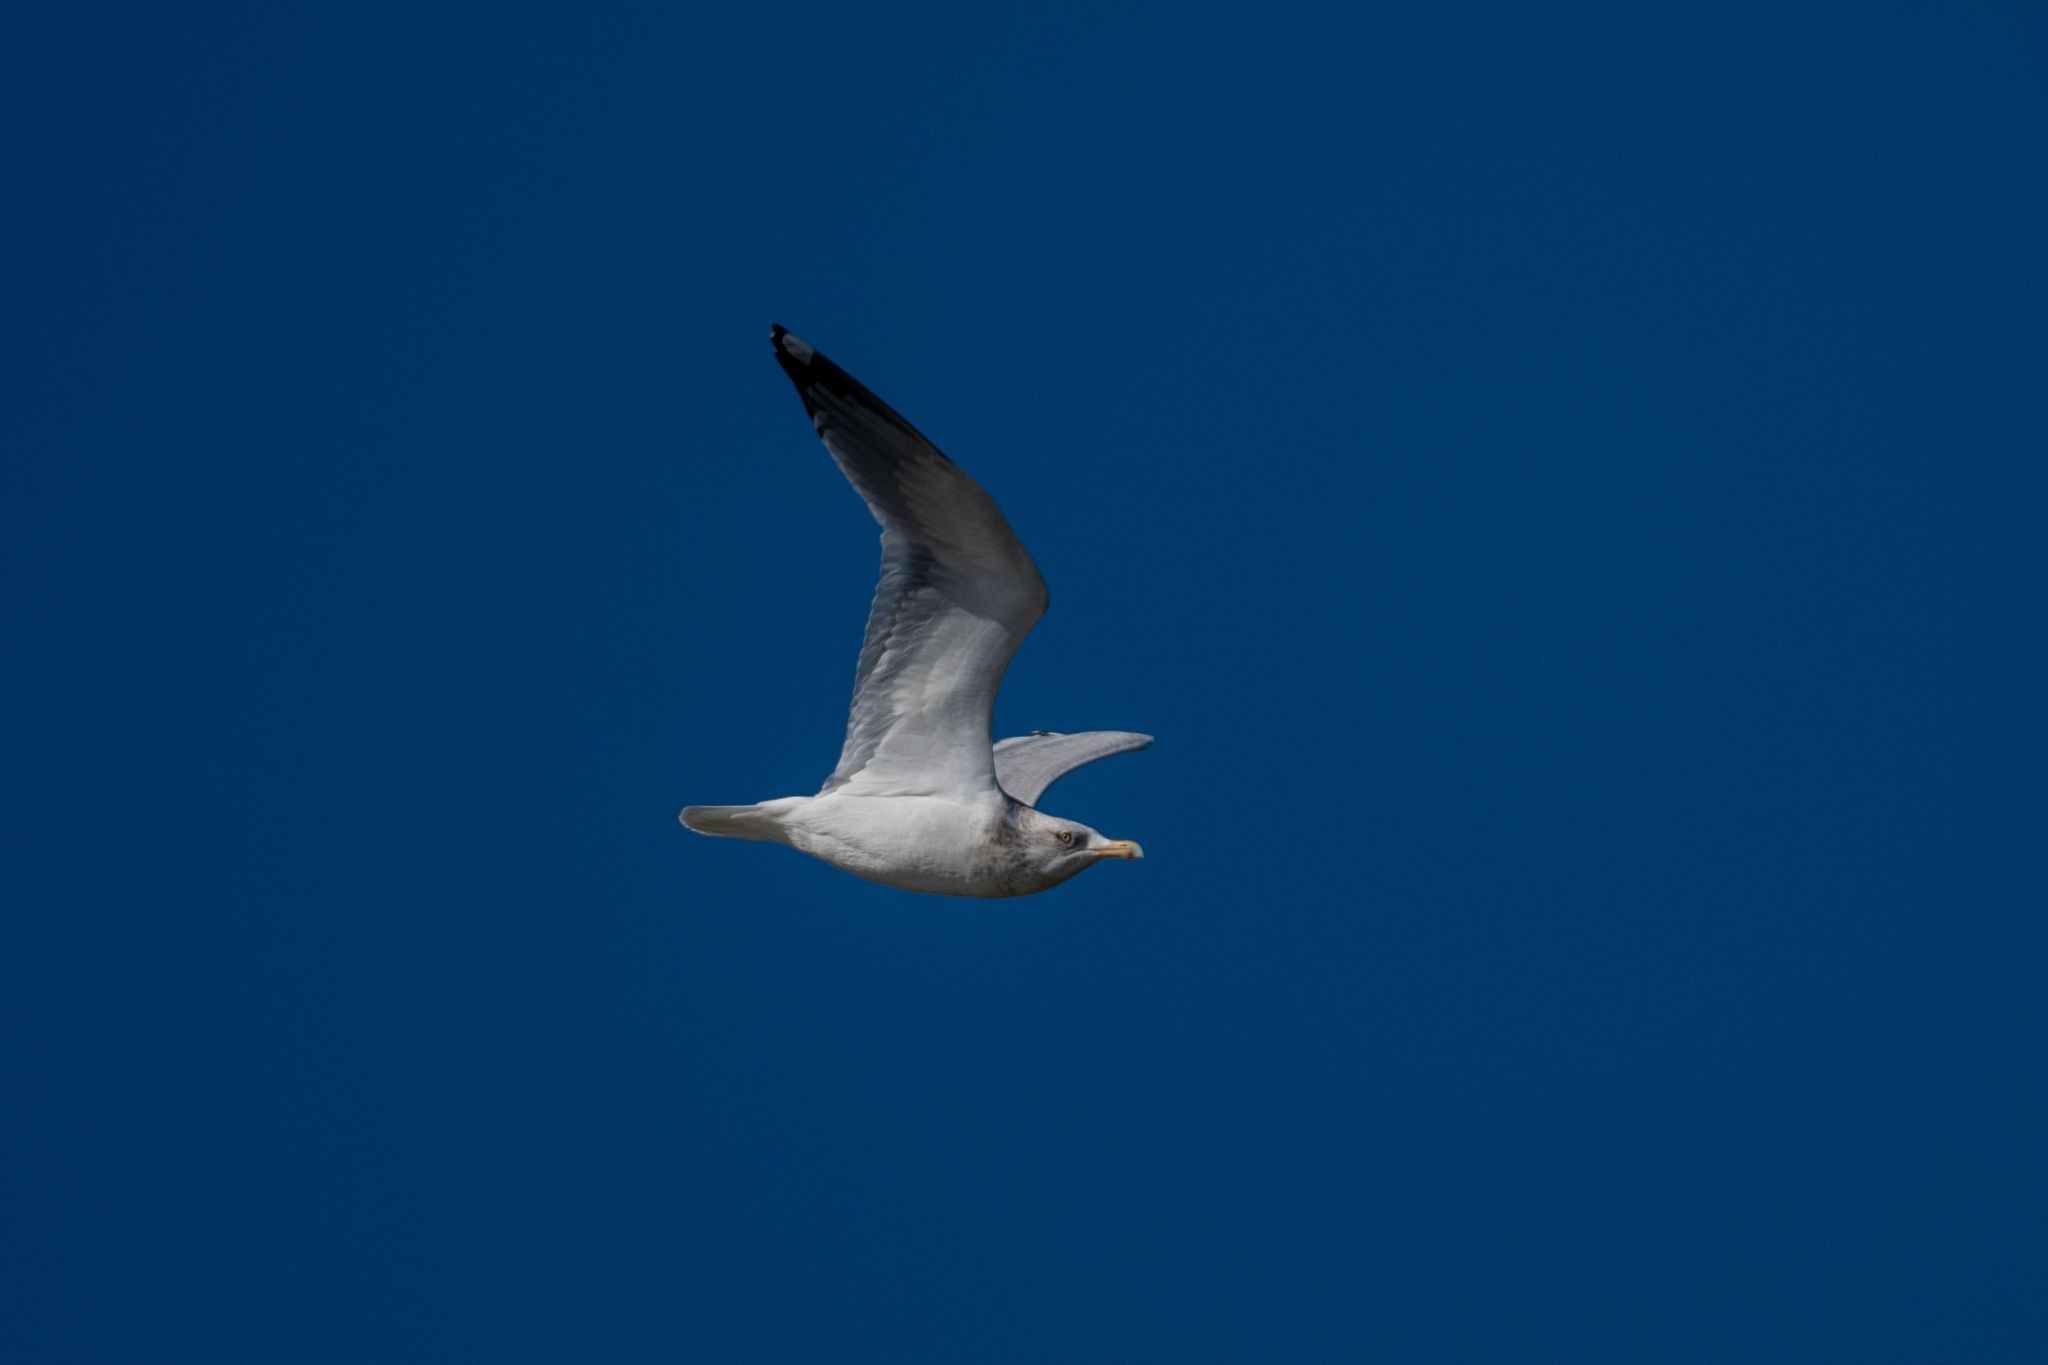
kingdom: Animalia
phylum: Chordata
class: Aves
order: Charadriiformes
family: Laridae
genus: Larus
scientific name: Larus argentatus
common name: Herring gull
